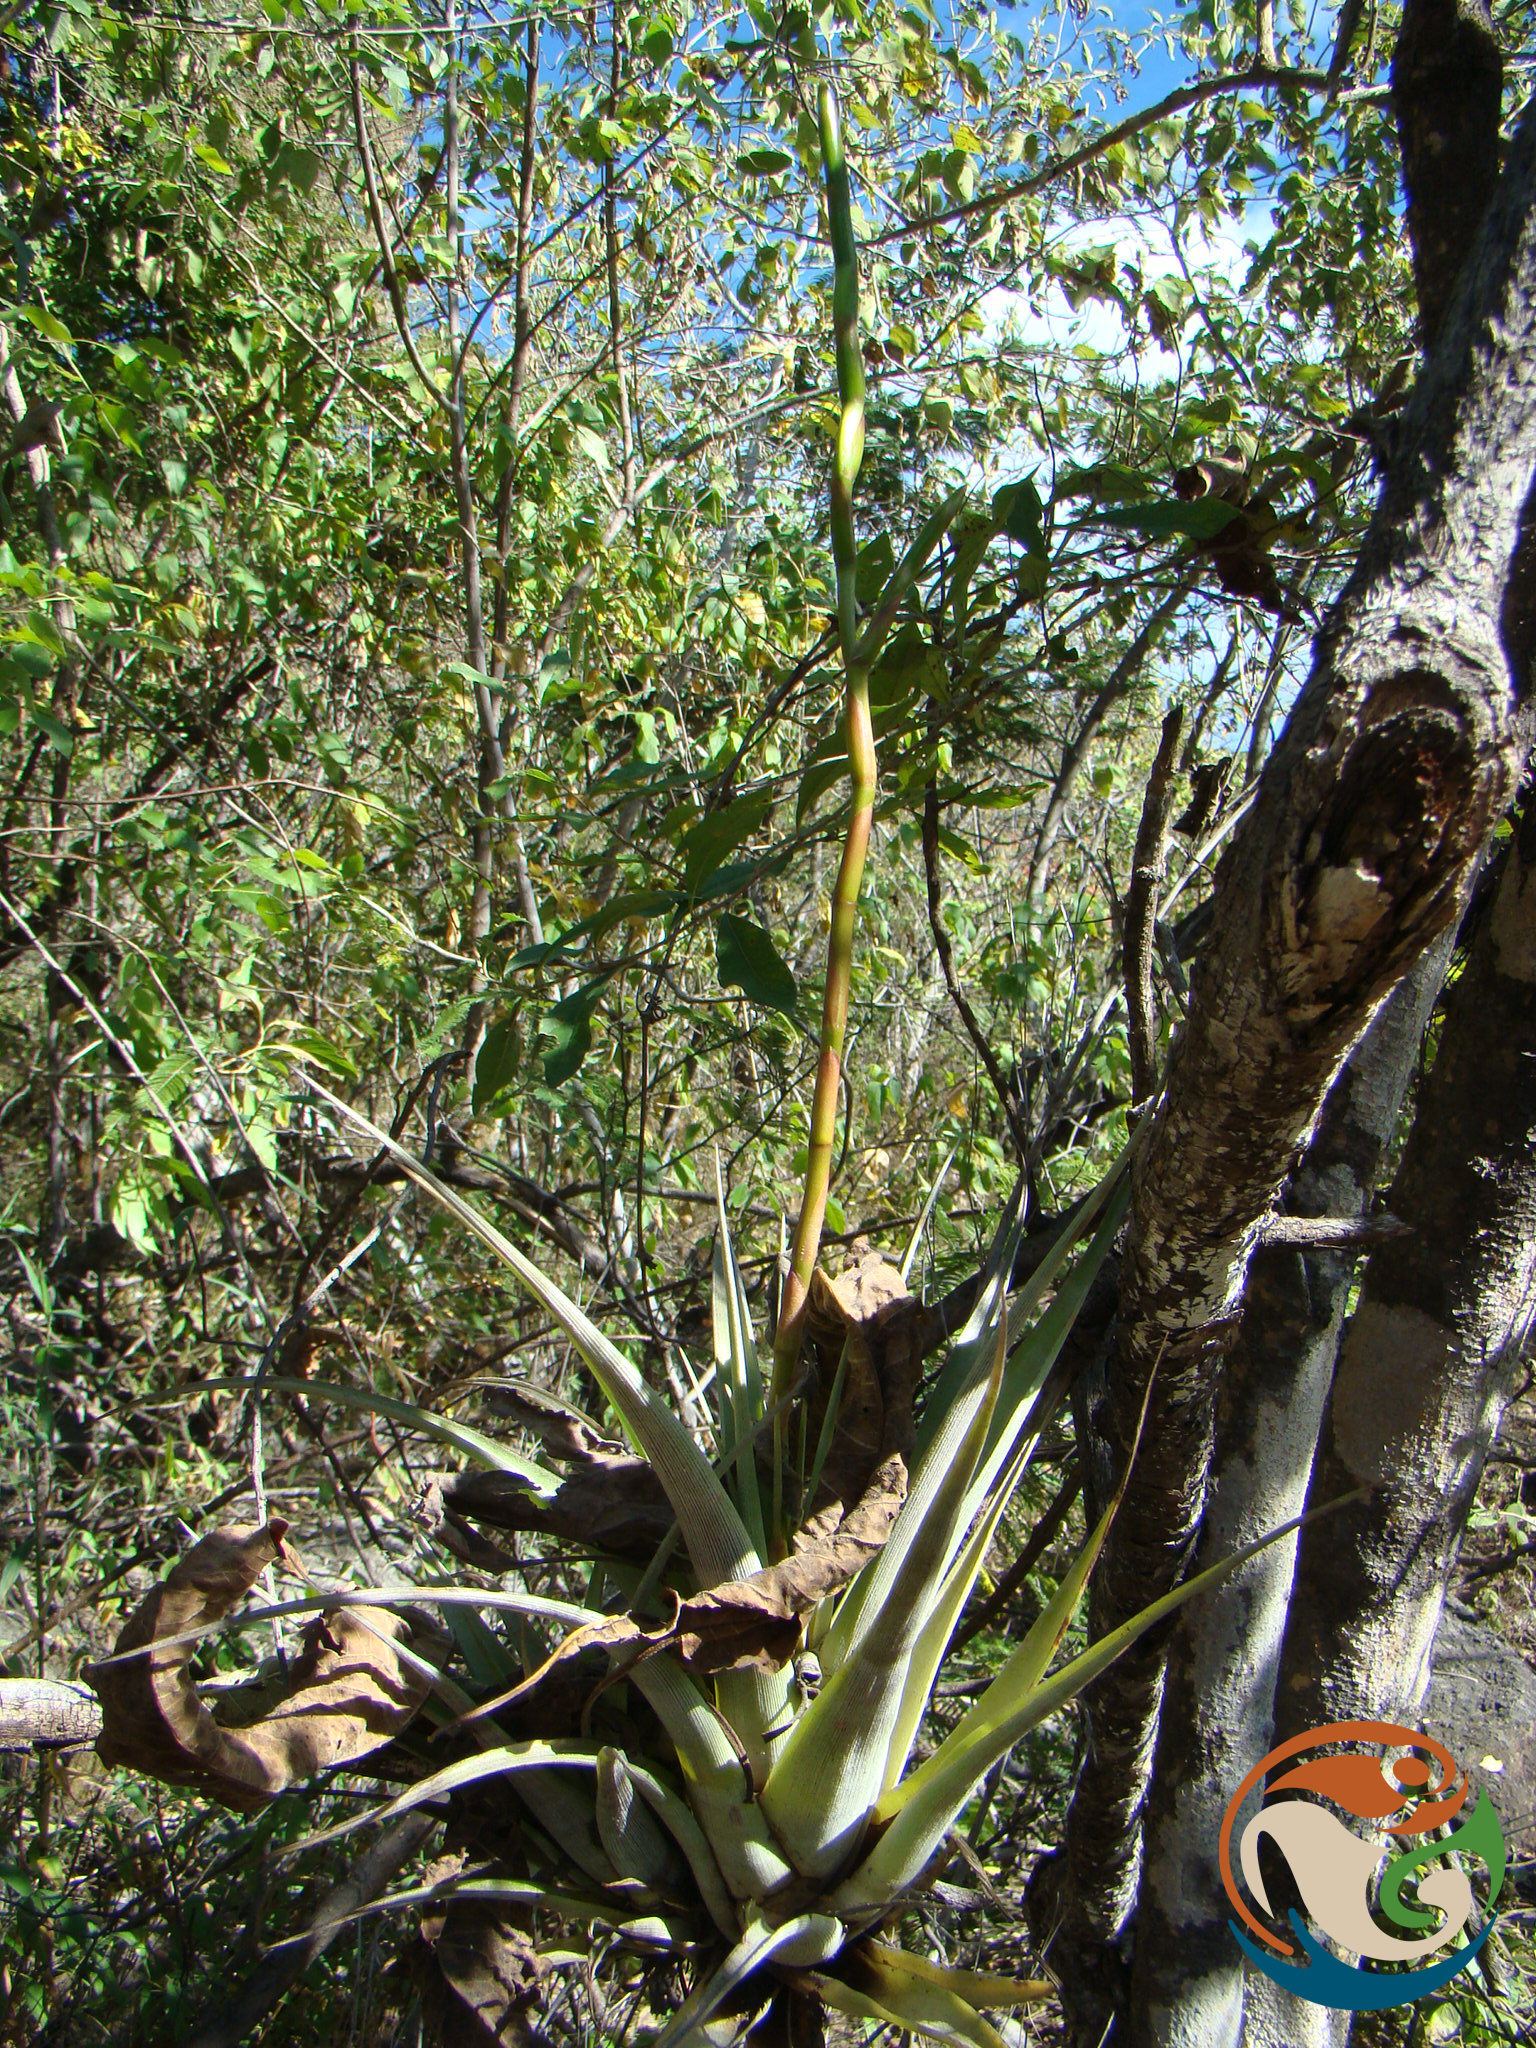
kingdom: Plantae
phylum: Tracheophyta
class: Liliopsida
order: Poales
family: Bromeliaceae
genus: Tillandsia
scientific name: Tillandsia makoyana
